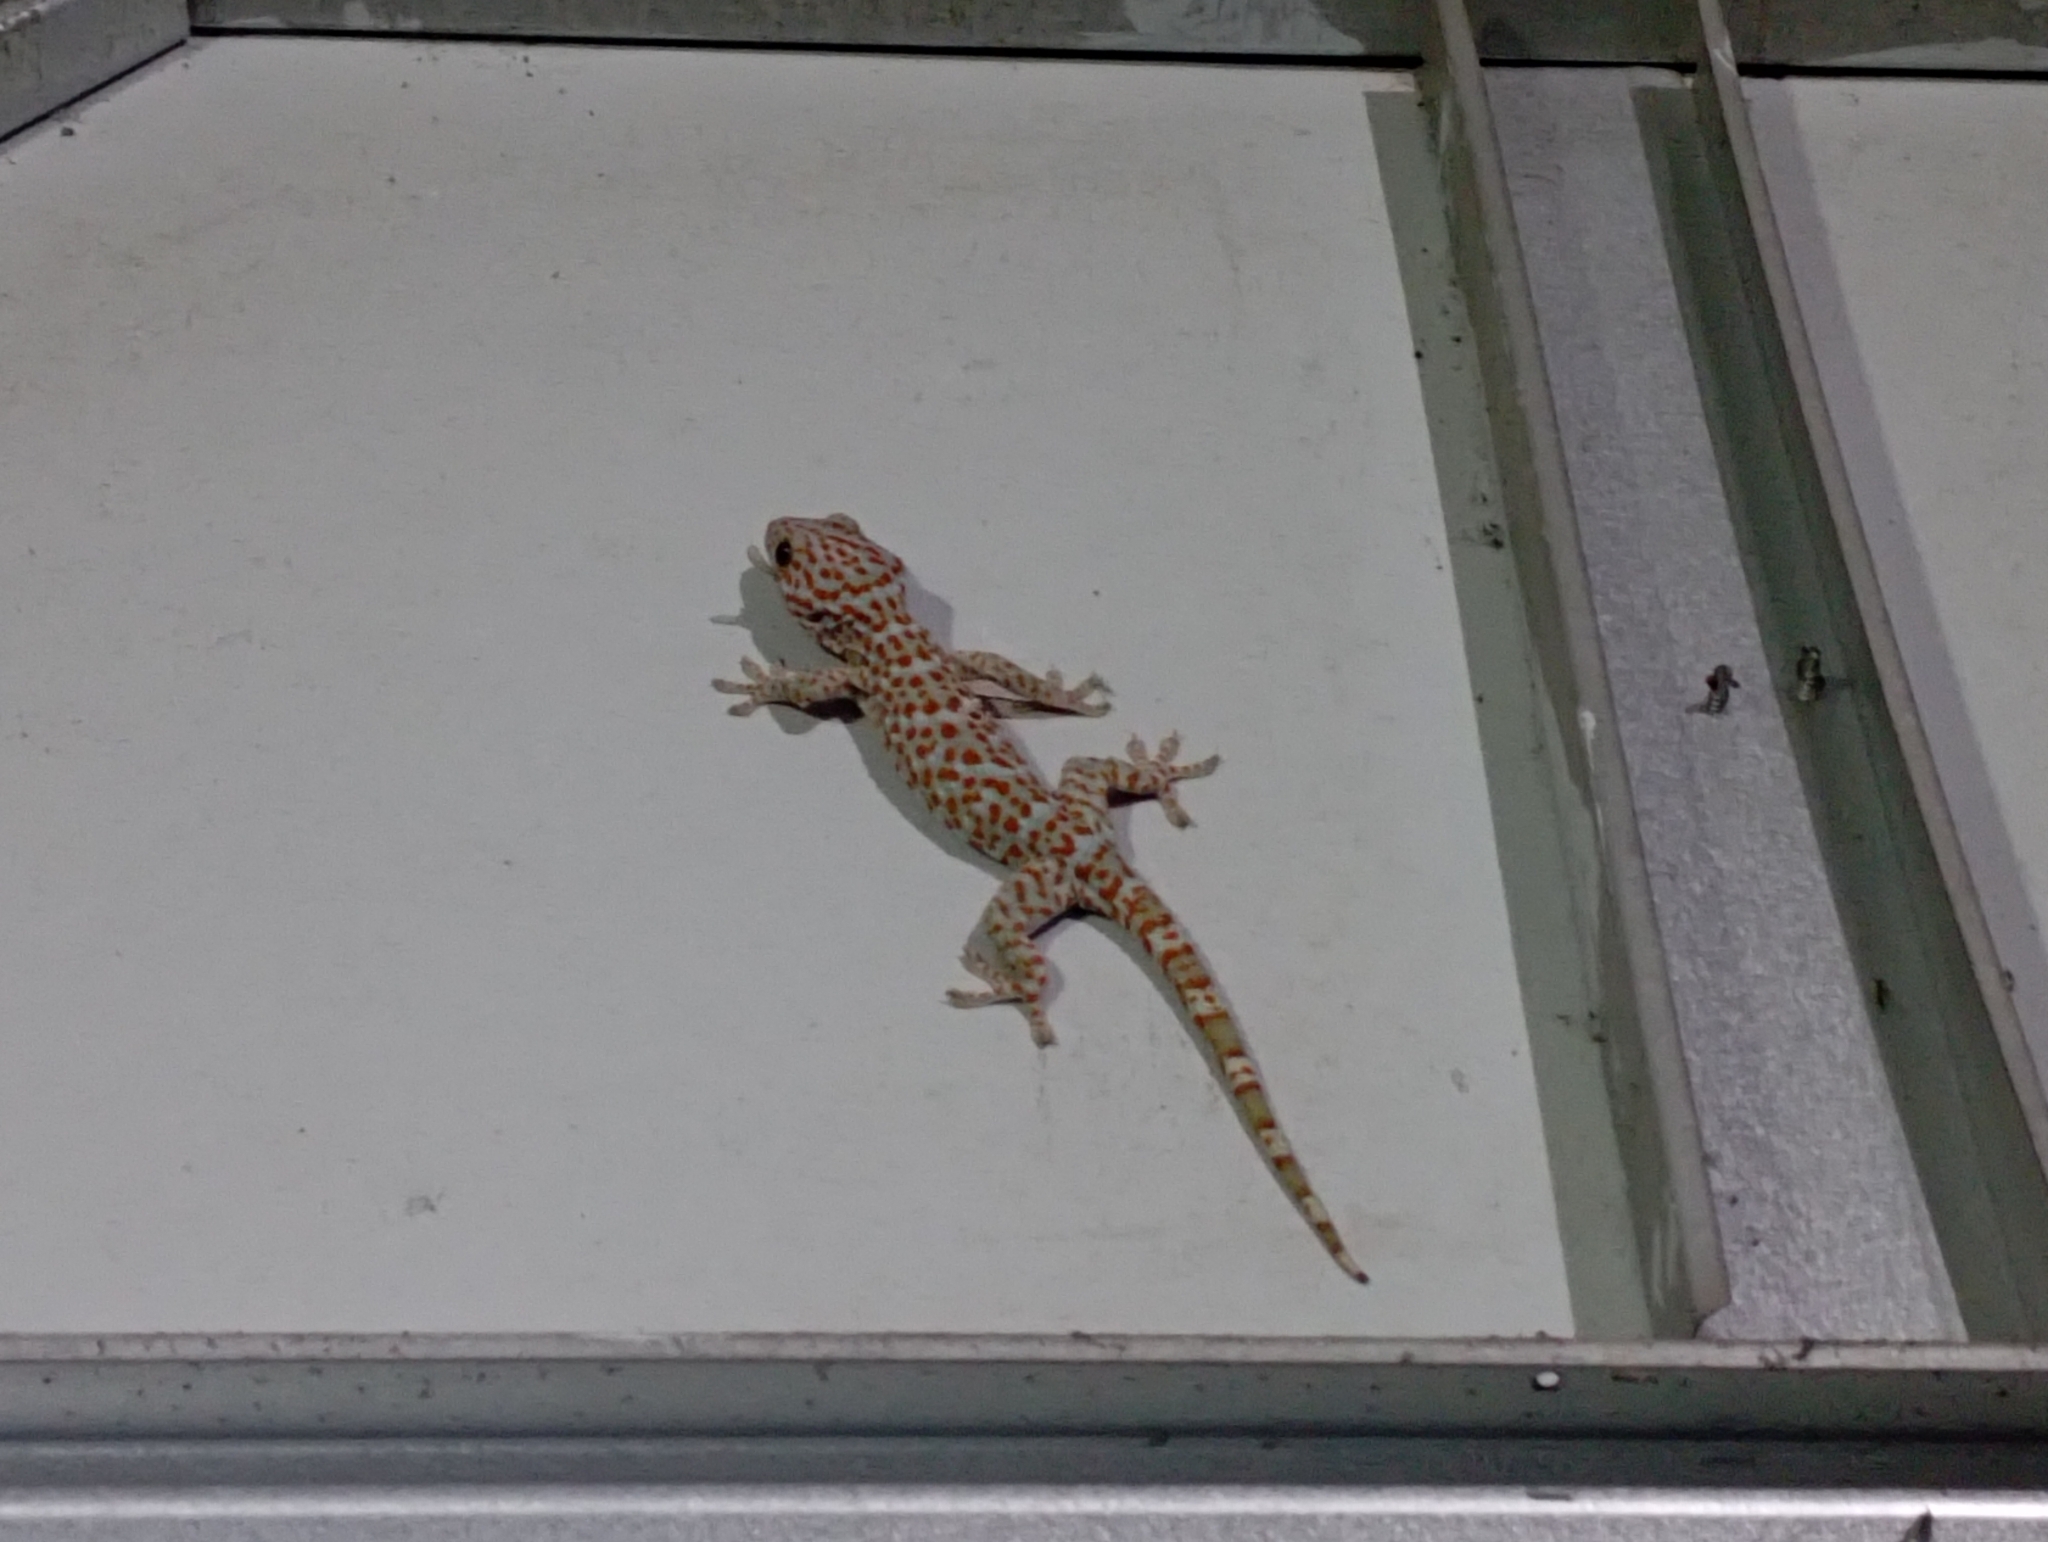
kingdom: Animalia
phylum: Chordata
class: Squamata
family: Gekkonidae
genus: Gekko
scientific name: Gekko gecko
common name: Tokay gecko
